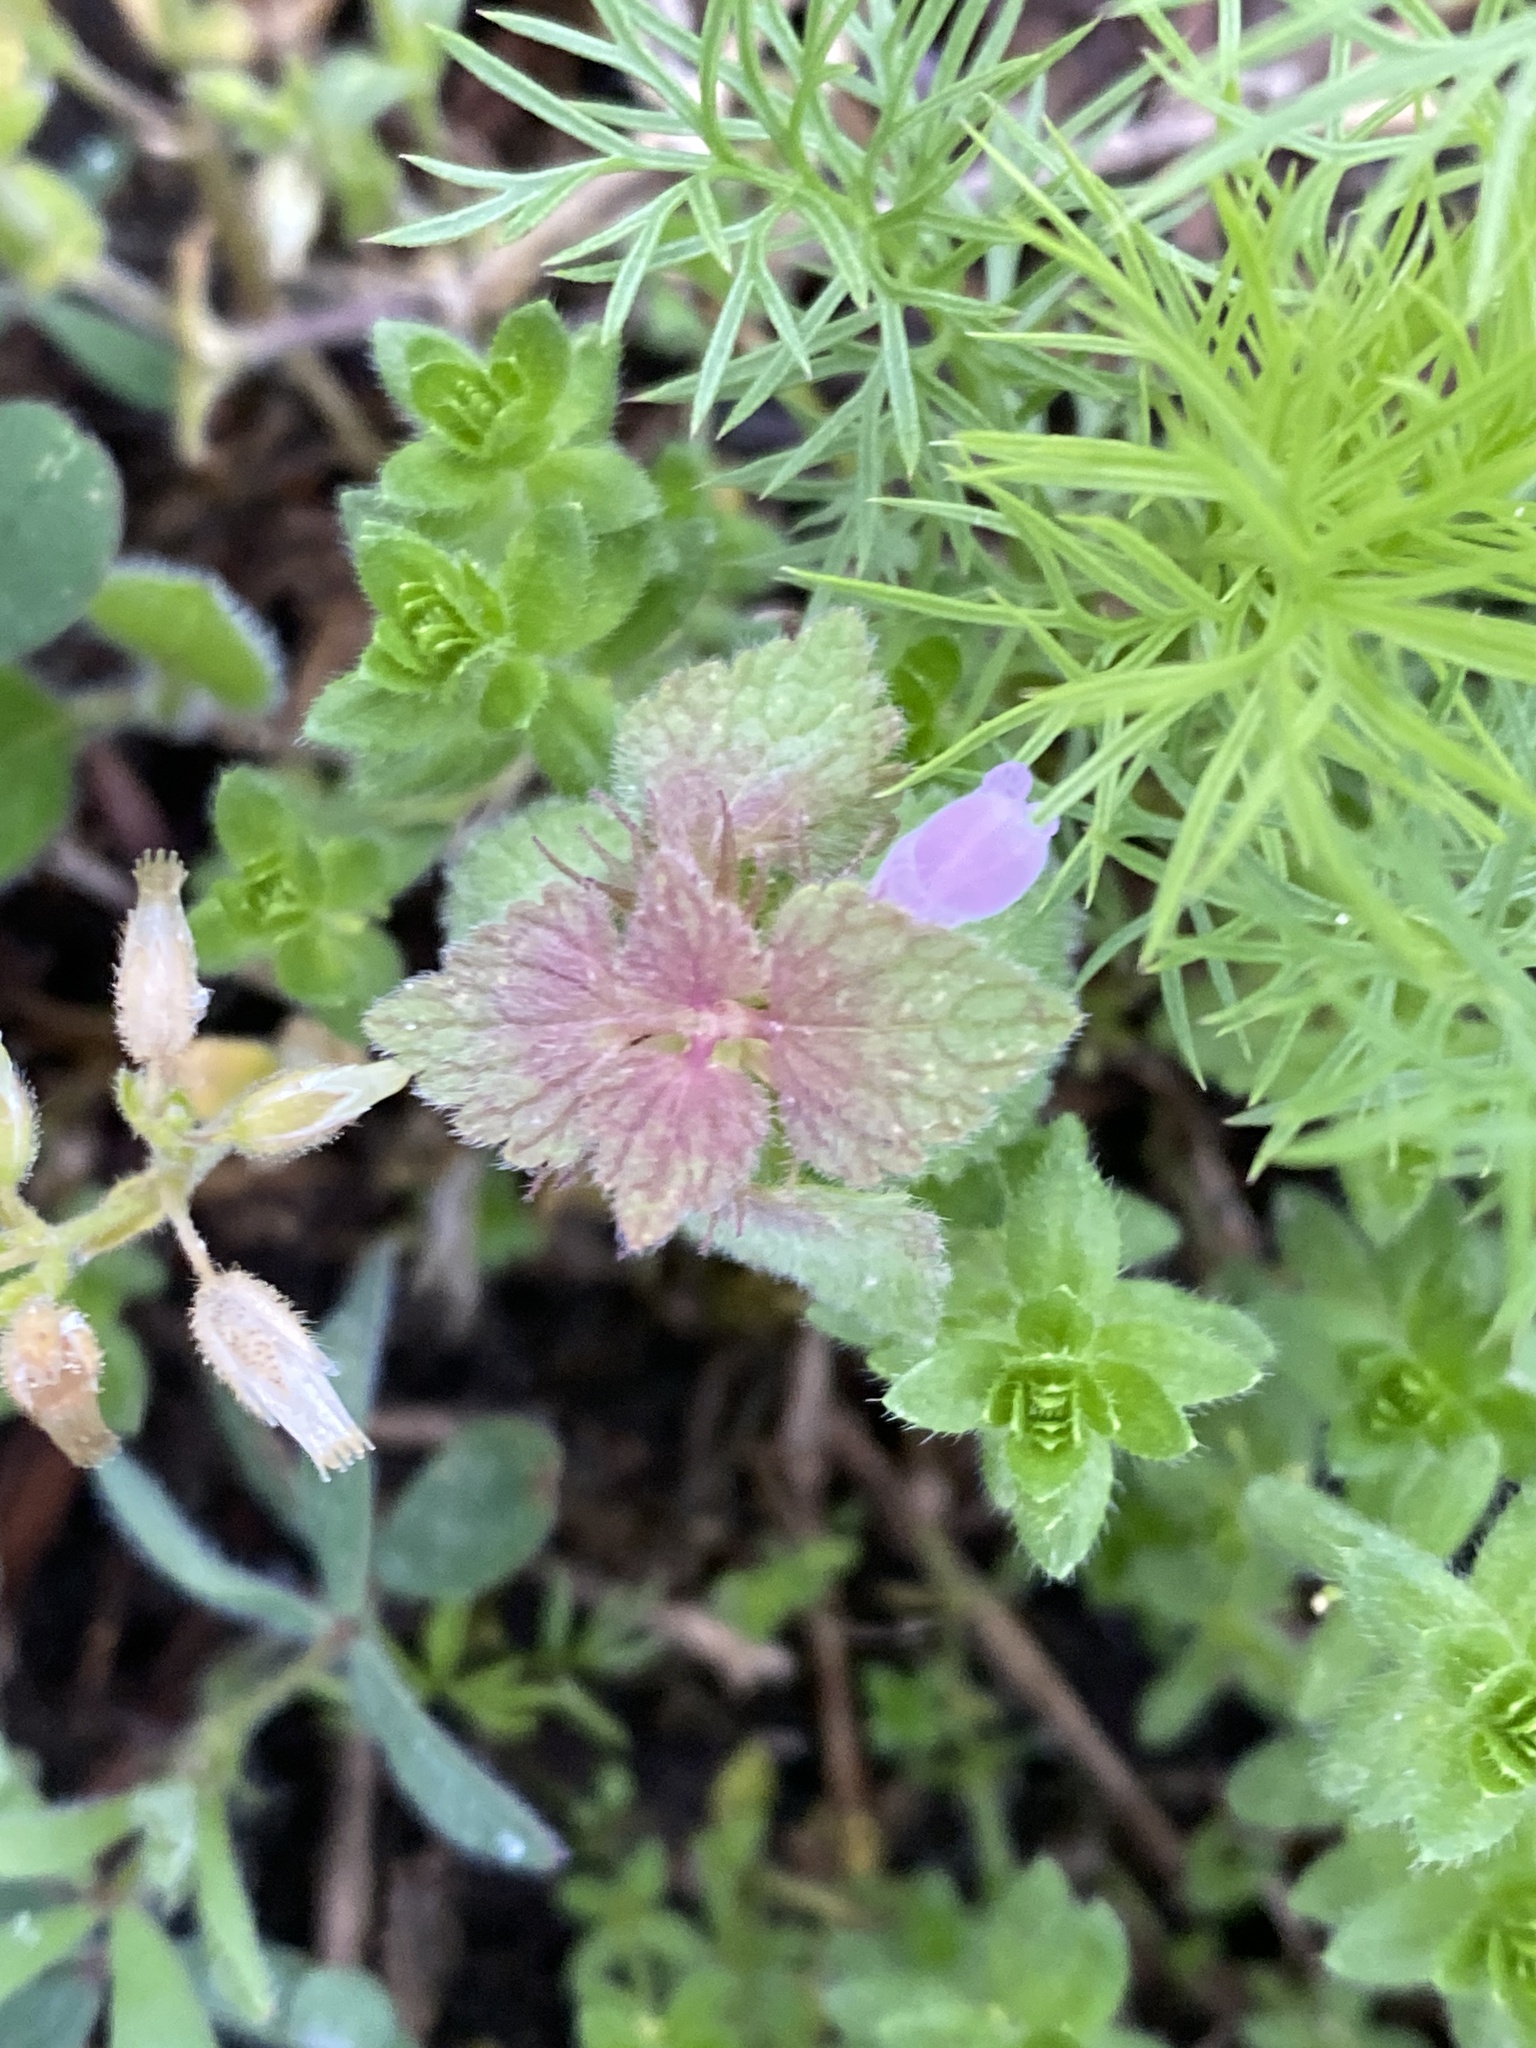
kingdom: Plantae
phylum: Tracheophyta
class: Magnoliopsida
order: Lamiales
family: Lamiaceae
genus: Lamium
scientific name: Lamium purpureum
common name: Red dead-nettle
